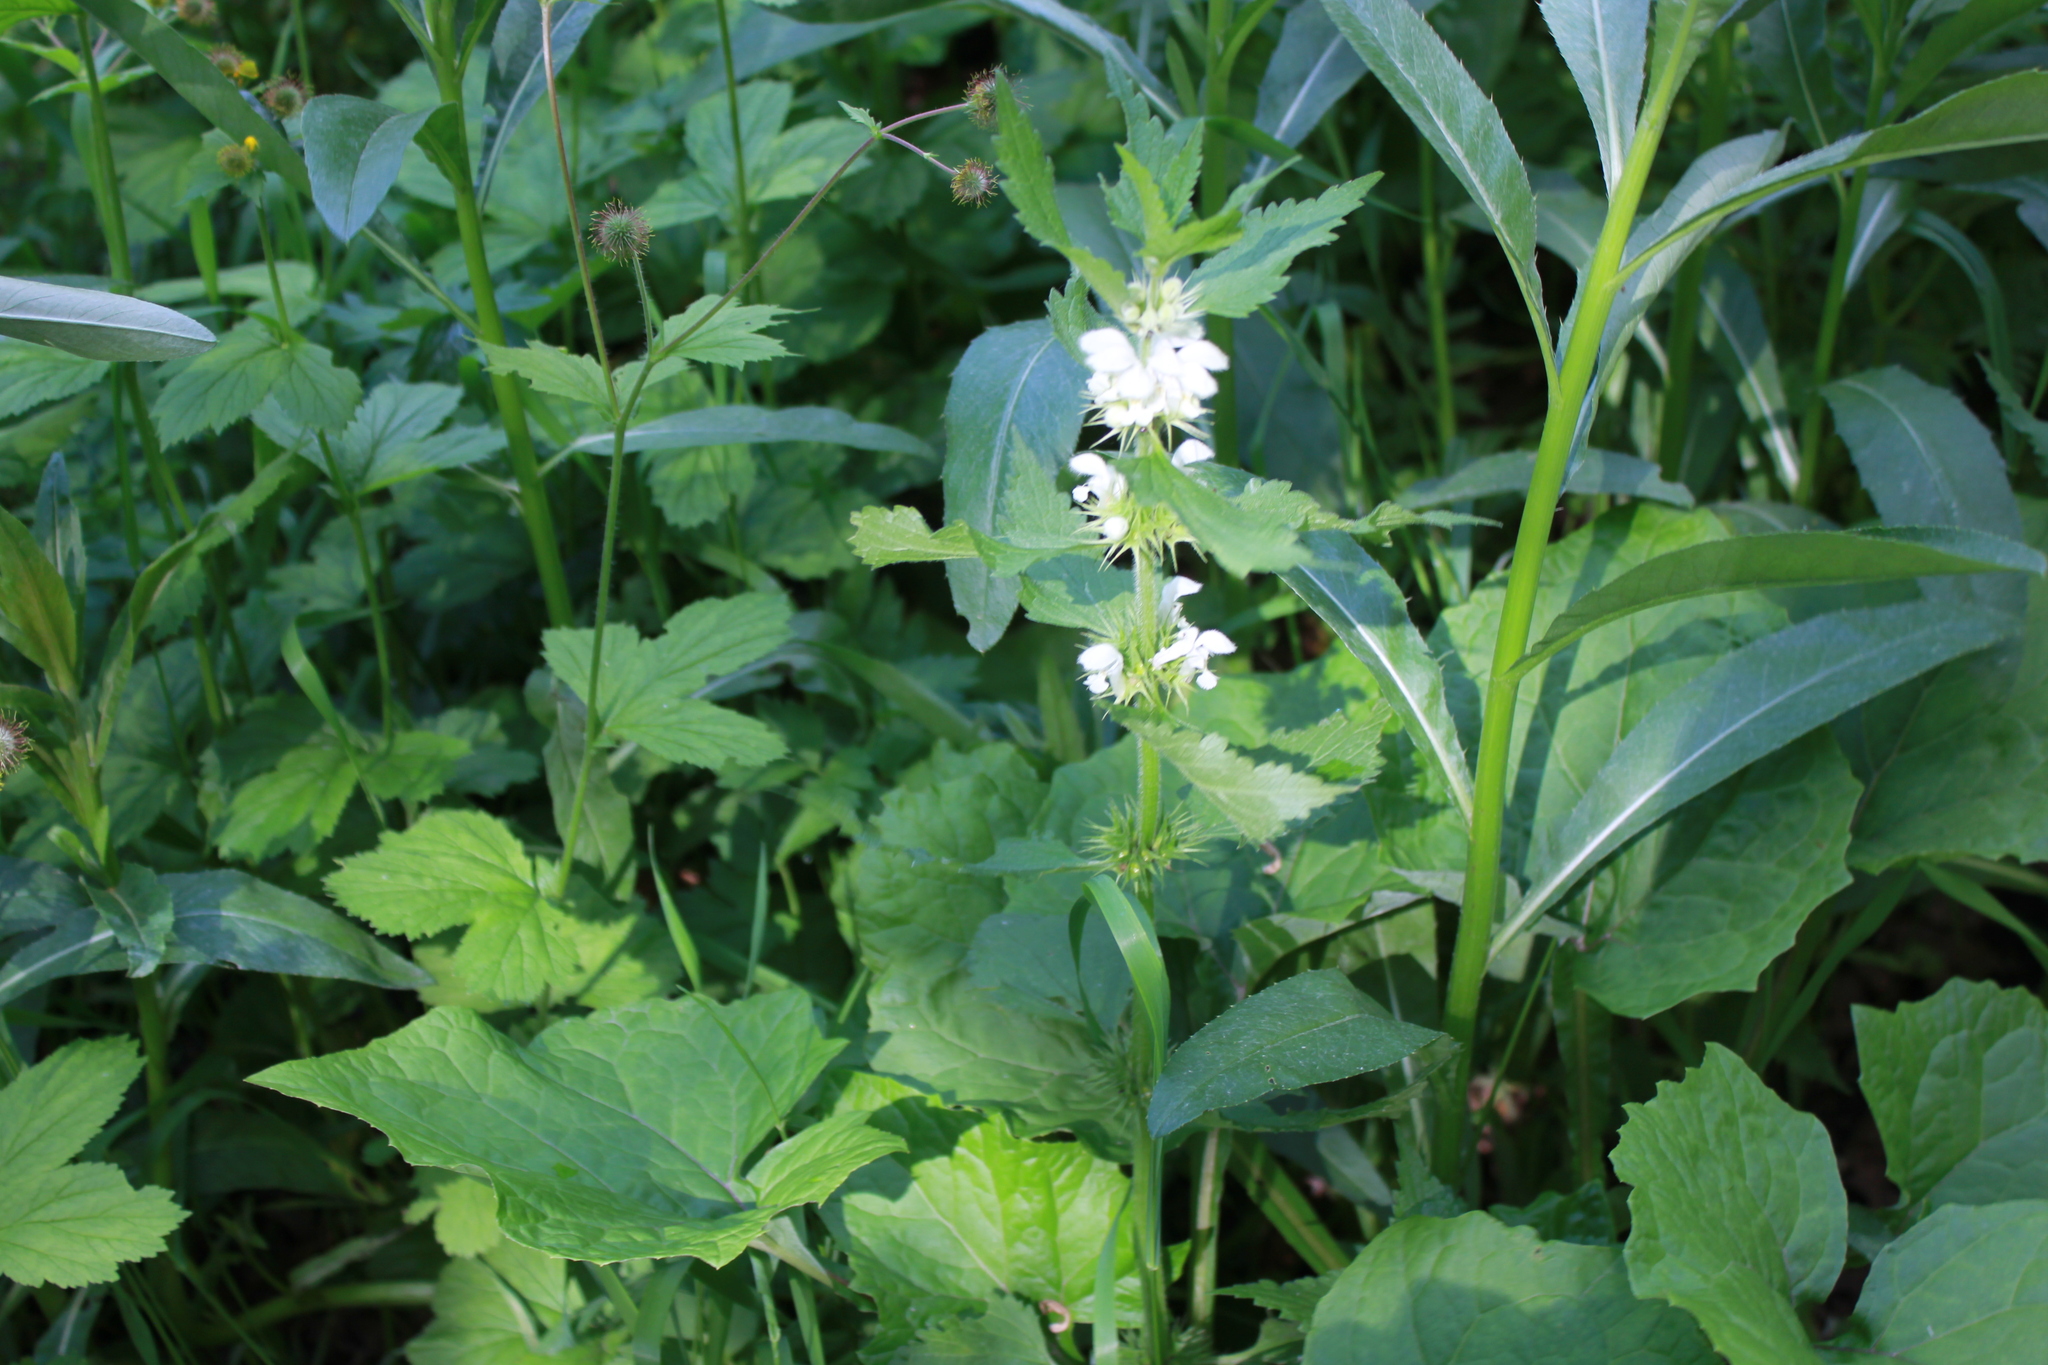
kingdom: Plantae
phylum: Tracheophyta
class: Magnoliopsida
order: Lamiales
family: Lamiaceae
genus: Lamium
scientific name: Lamium album
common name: White dead-nettle
